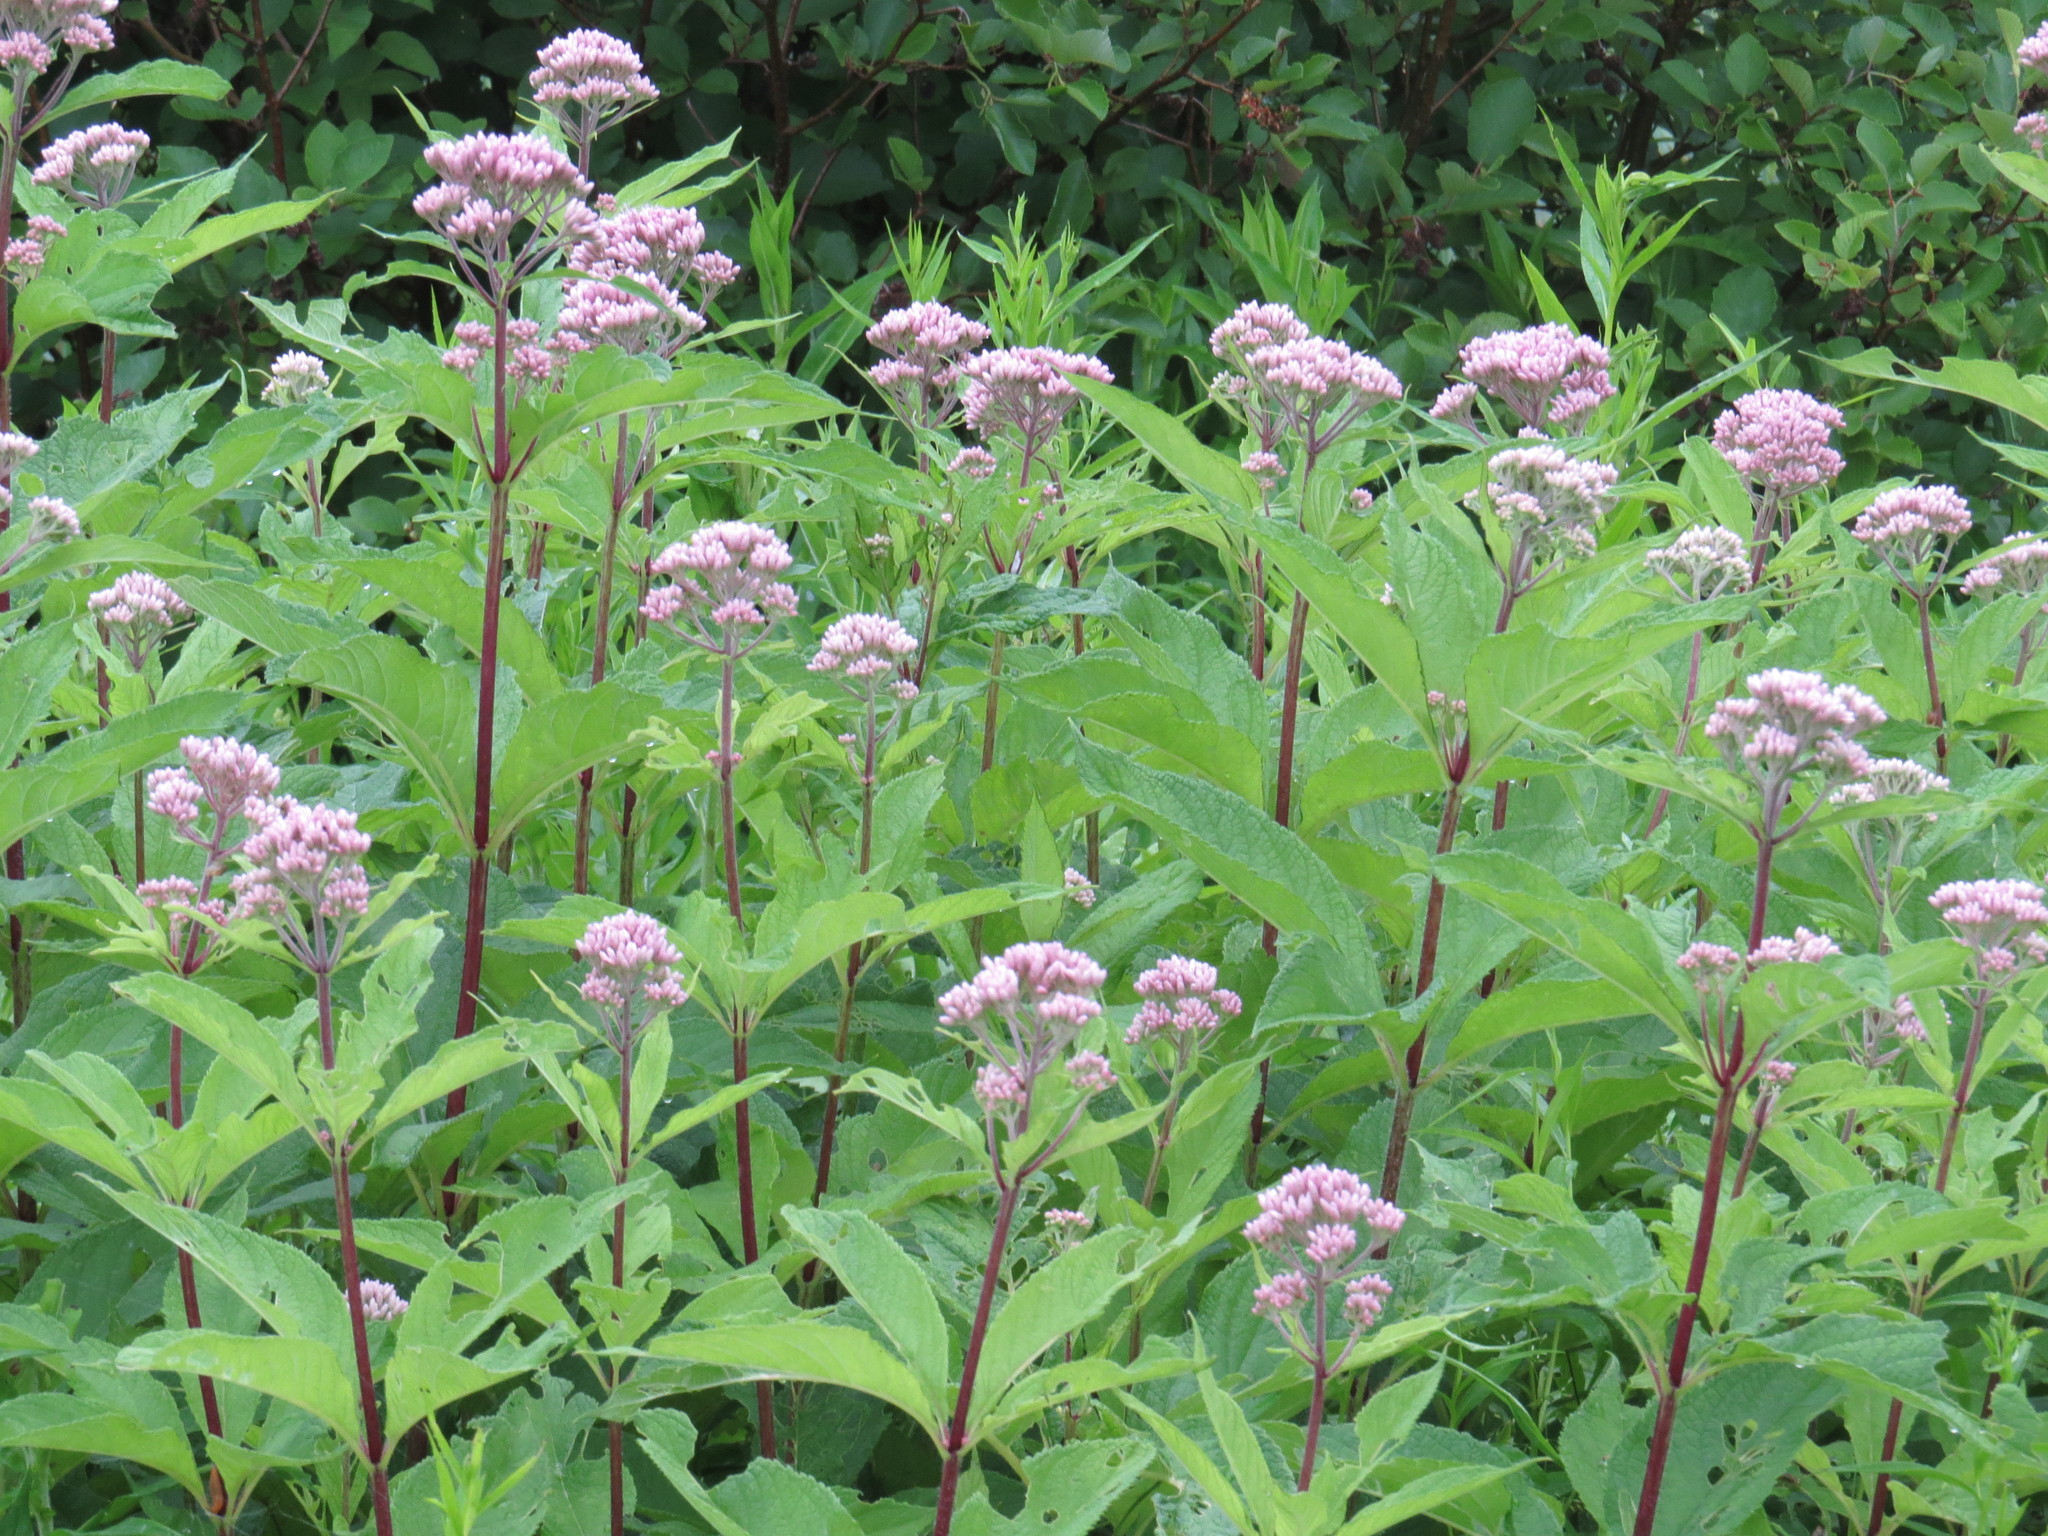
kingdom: Plantae
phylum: Tracheophyta
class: Magnoliopsida
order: Asterales
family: Asteraceae
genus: Eutrochium
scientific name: Eutrochium maculatum
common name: Spotted joe pye weed
